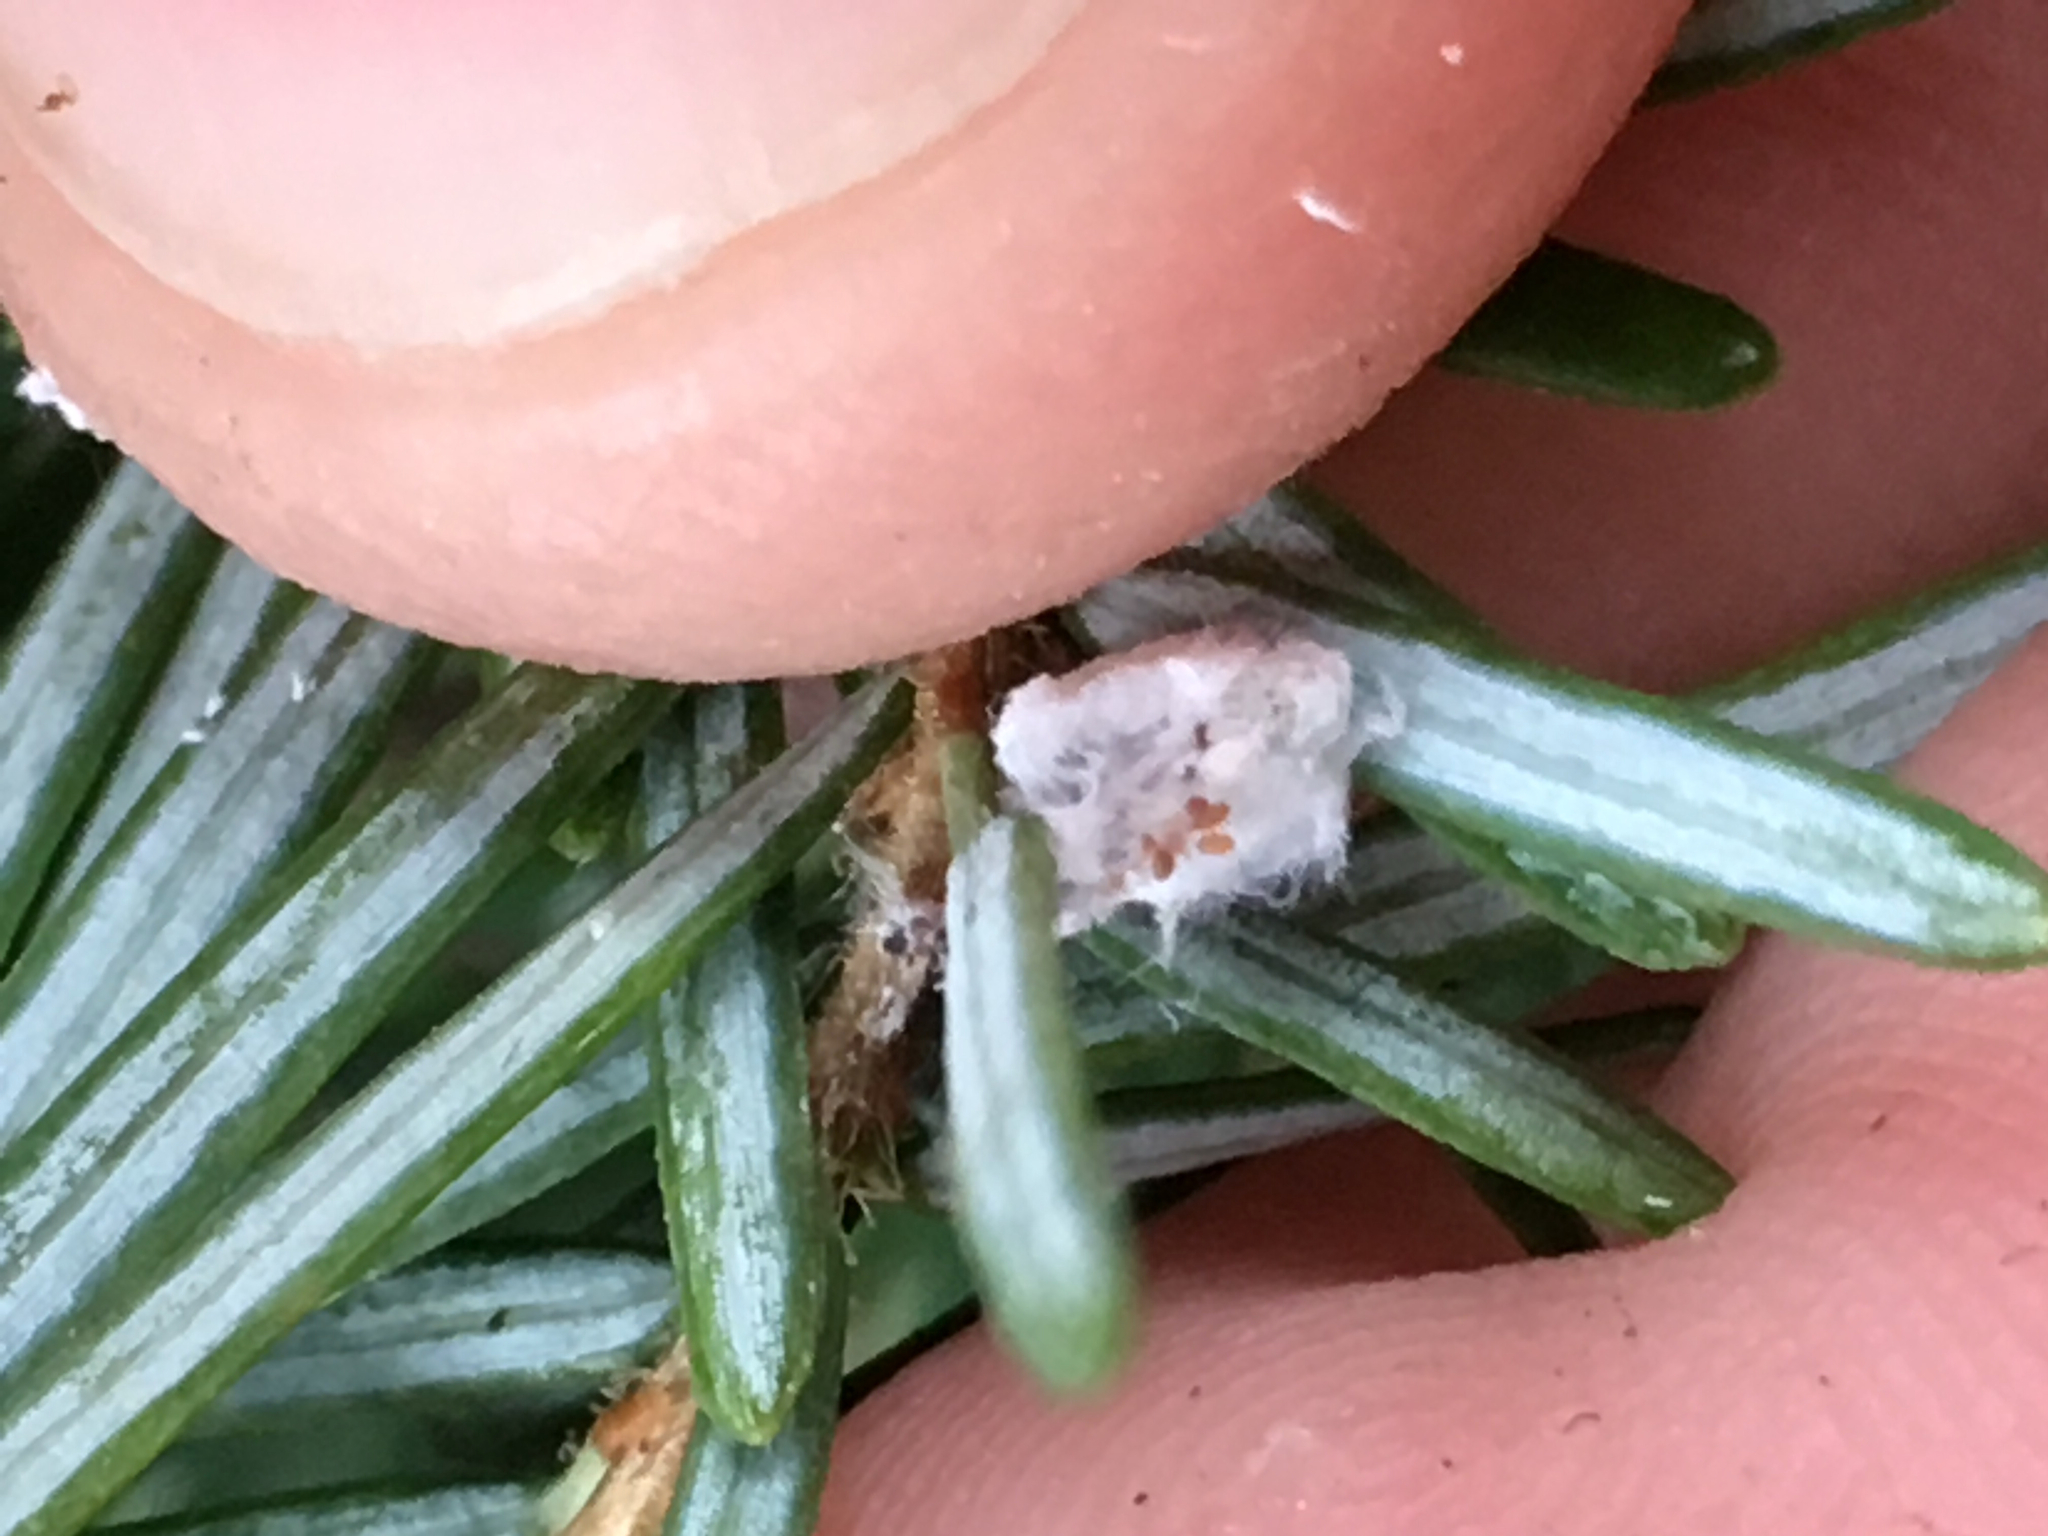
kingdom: Animalia
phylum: Arthropoda
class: Insecta
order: Hemiptera
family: Adelgidae
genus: Adelges
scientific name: Adelges tsugae
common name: Hemlock woolly adelgid
